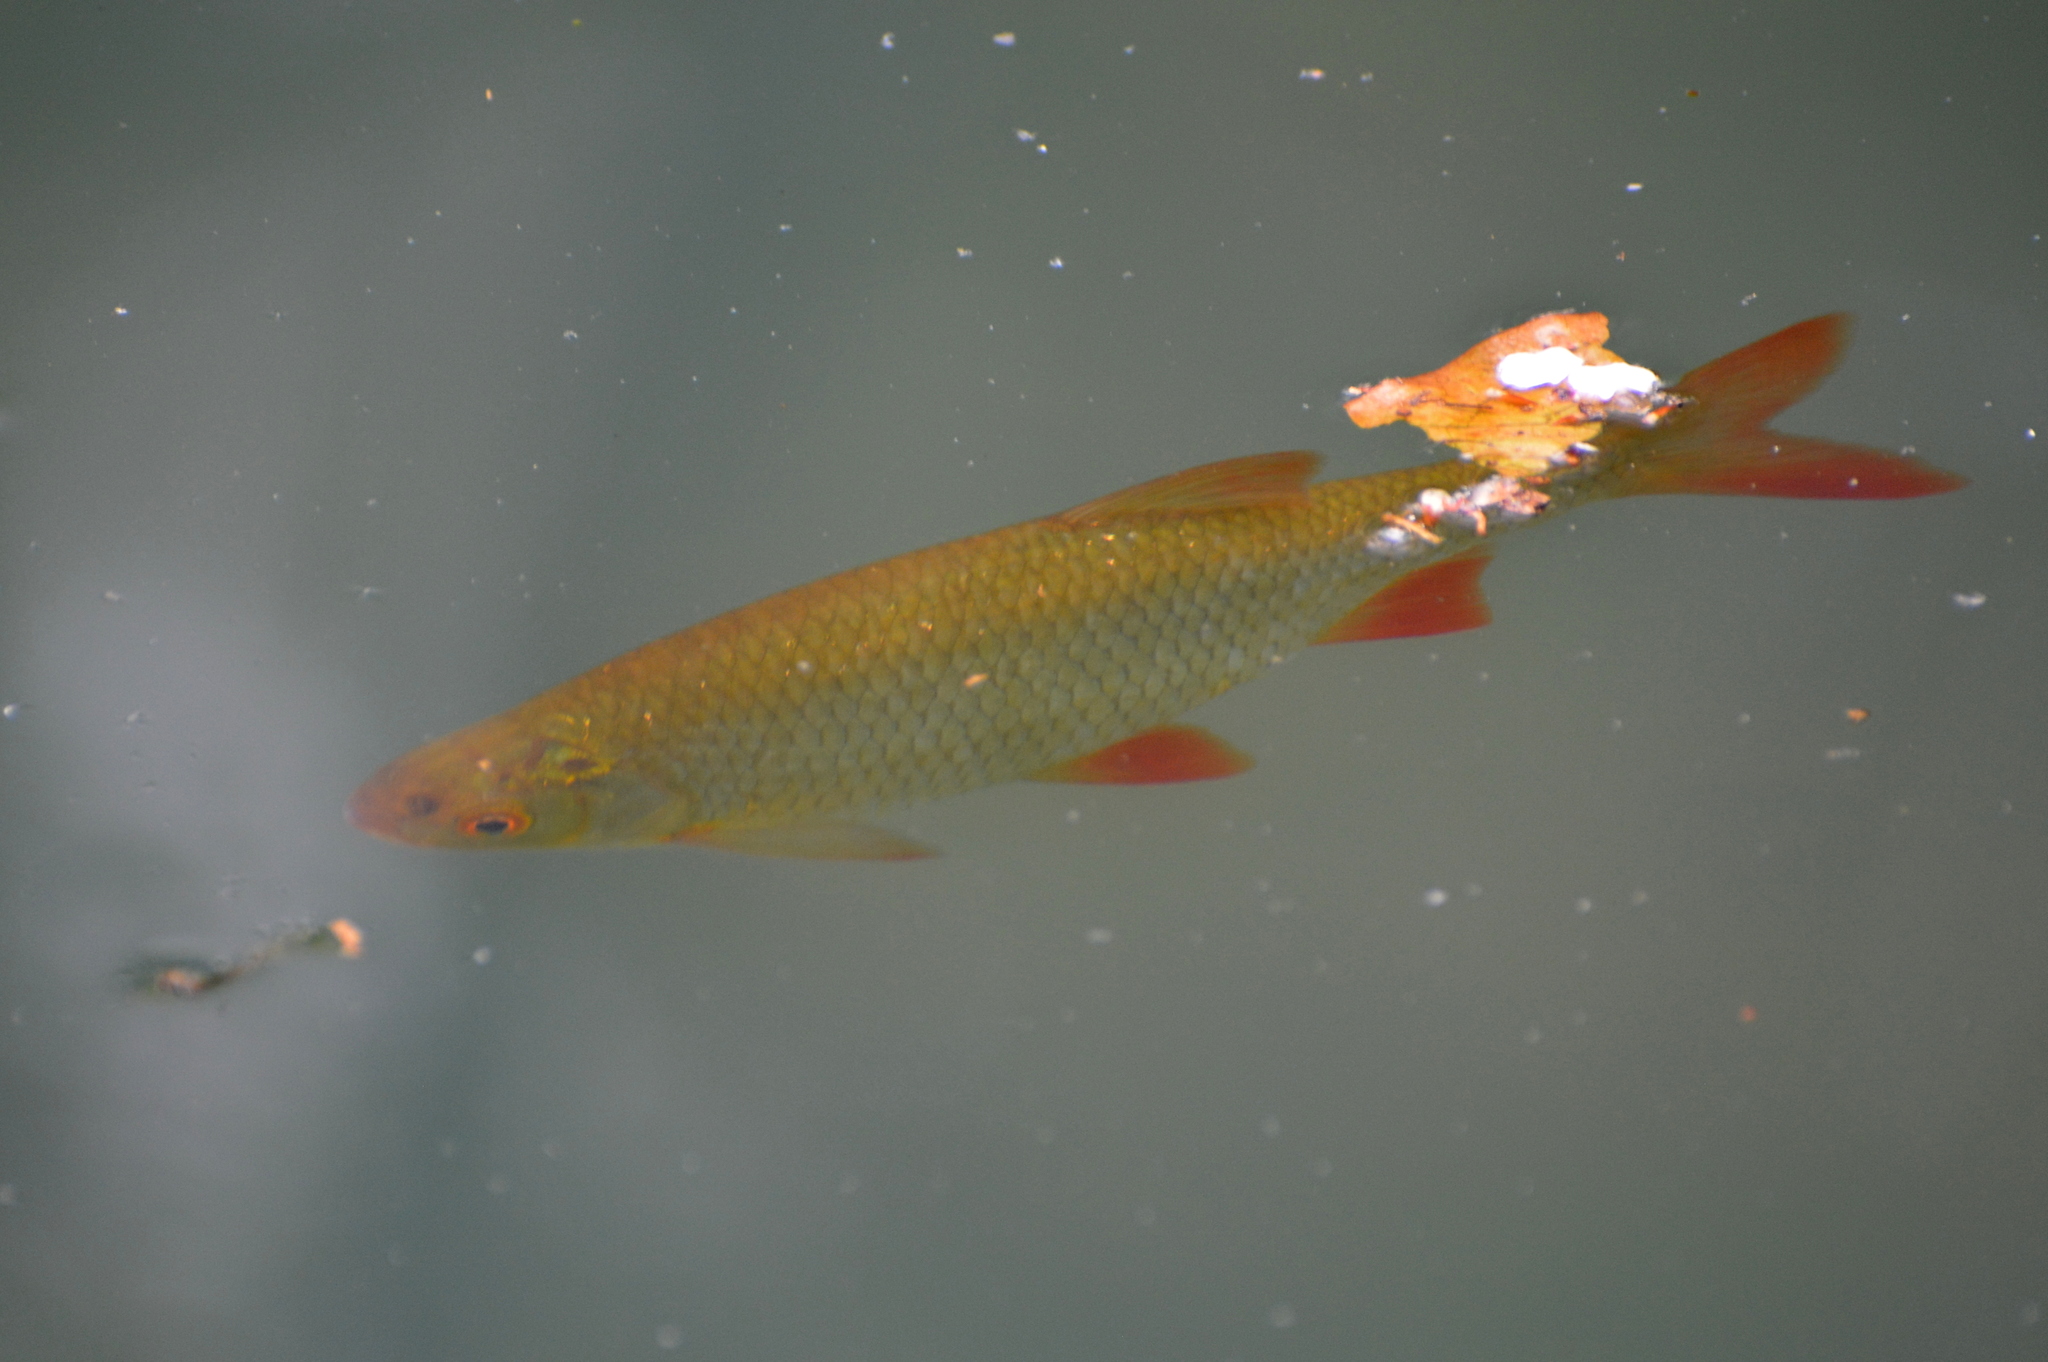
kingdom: Animalia
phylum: Chordata
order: Cypriniformes
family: Cyprinidae
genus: Scardinius
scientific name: Scardinius erythrophthalmus
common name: Rudd
